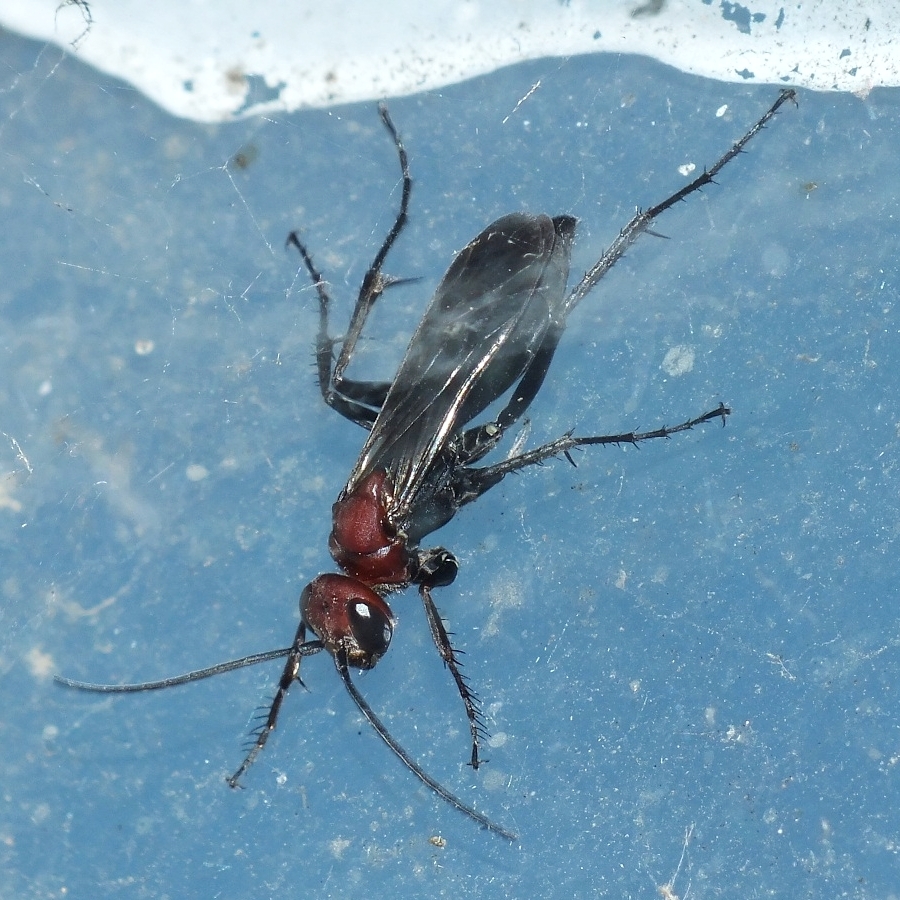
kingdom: Animalia
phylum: Arthropoda
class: Insecta
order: Hymenoptera
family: Pompilidae
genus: Agenioideus
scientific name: Agenioideus dichrous
